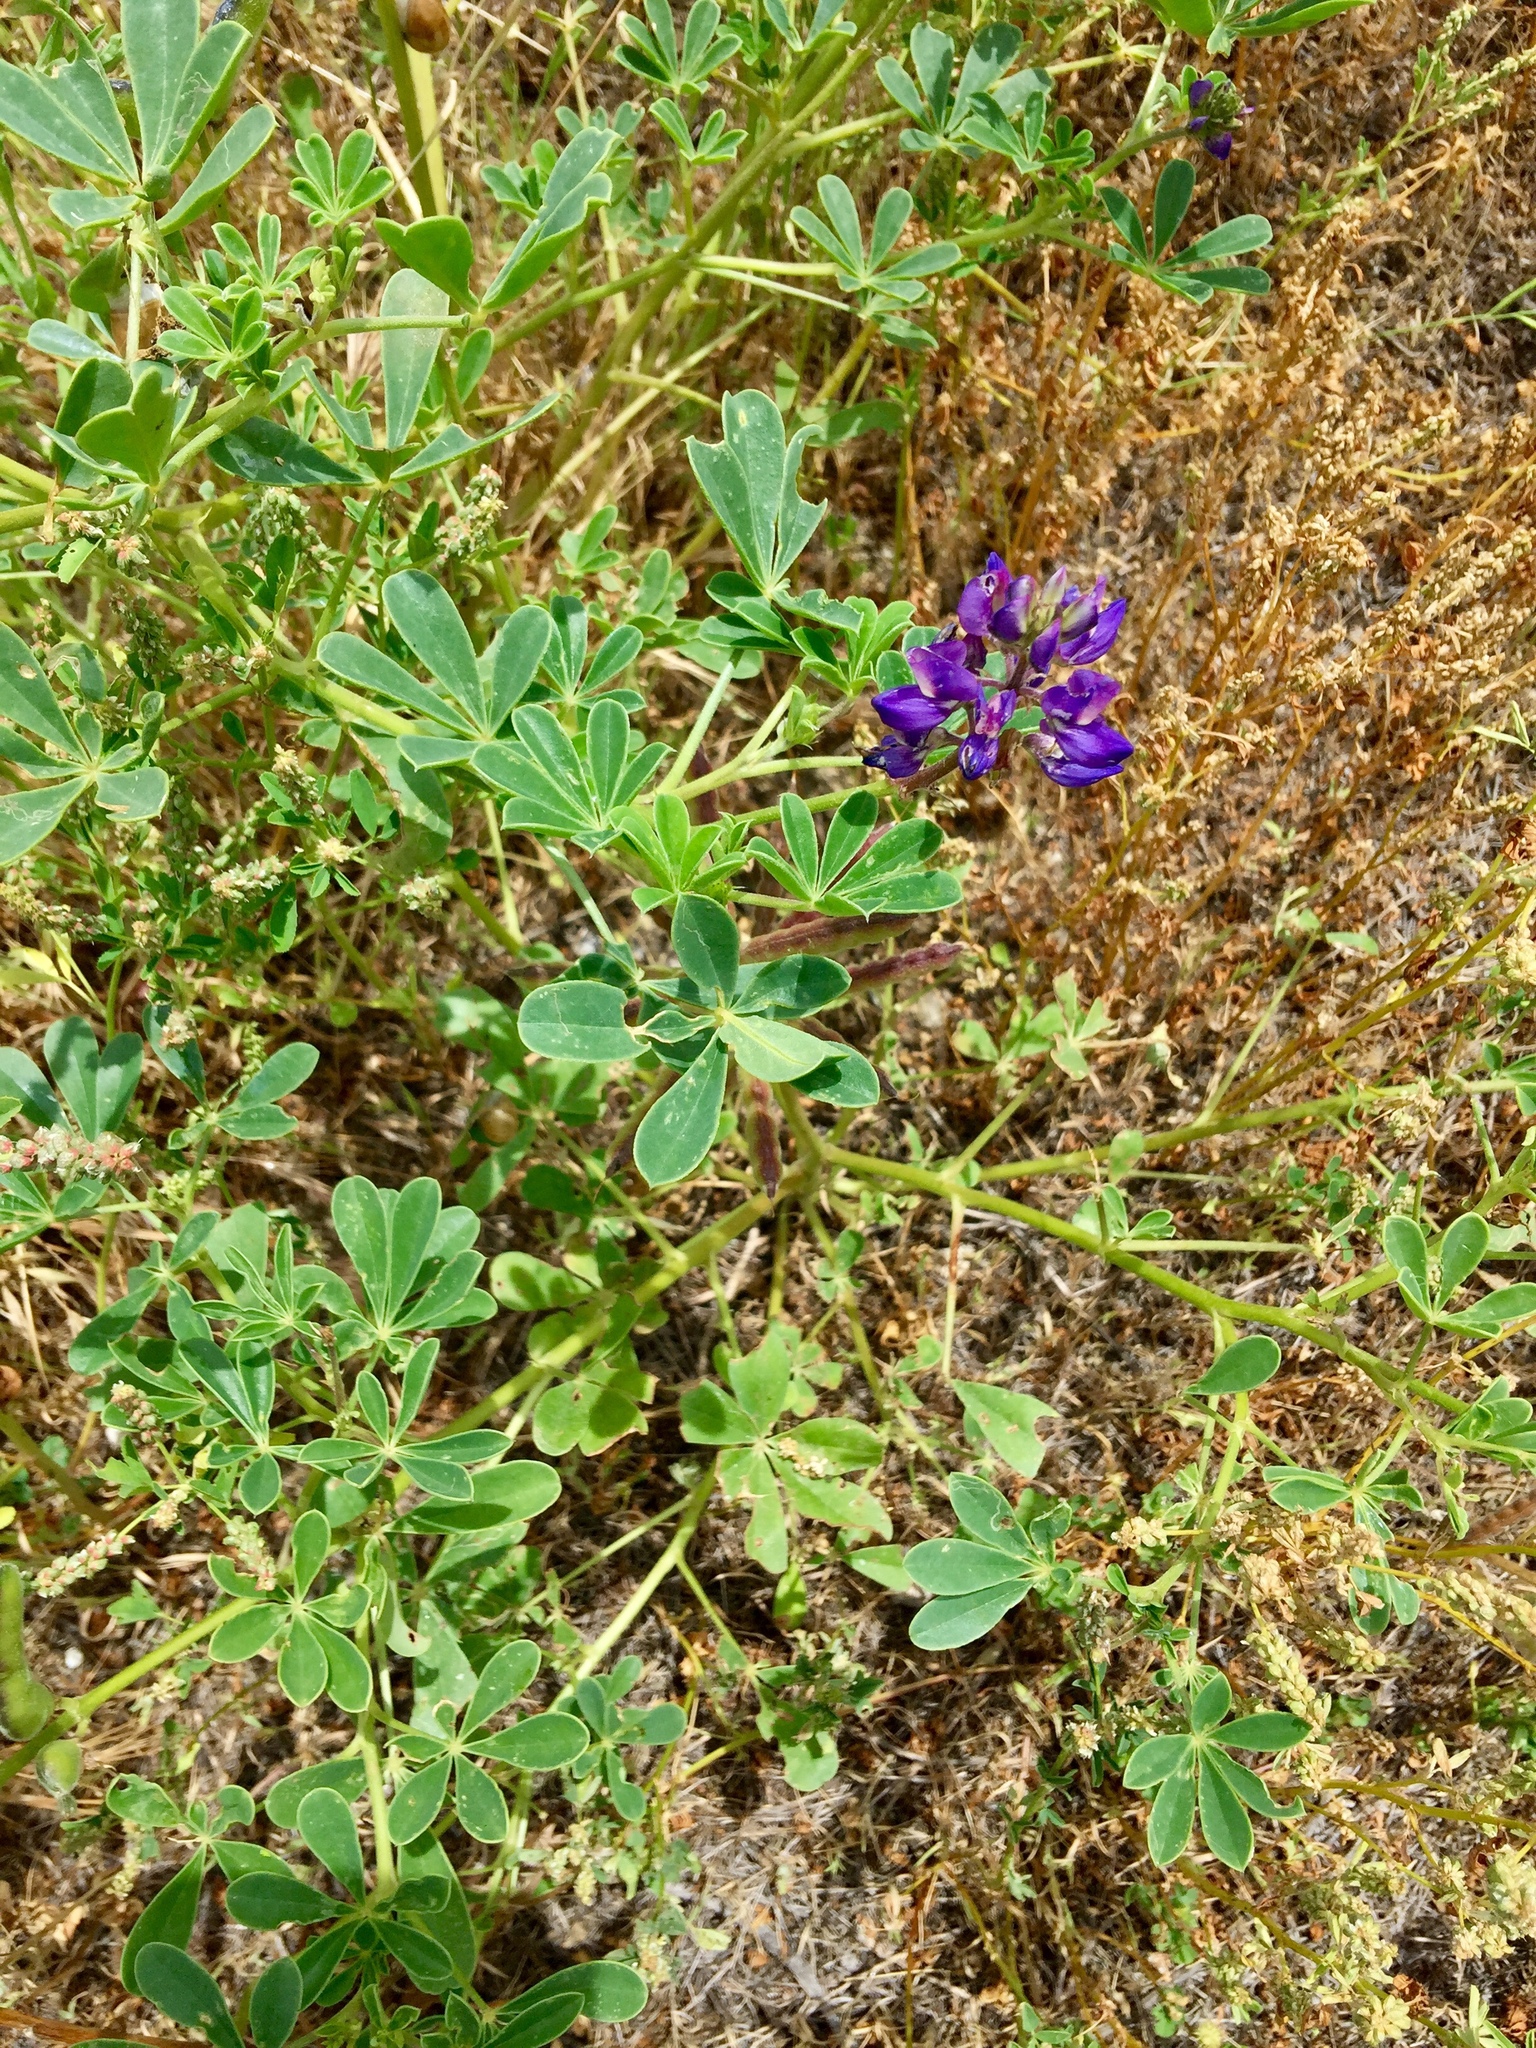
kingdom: Plantae
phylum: Tracheophyta
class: Magnoliopsida
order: Fabales
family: Fabaceae
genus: Lupinus
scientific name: Lupinus succulentus
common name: Arroyo lupine
